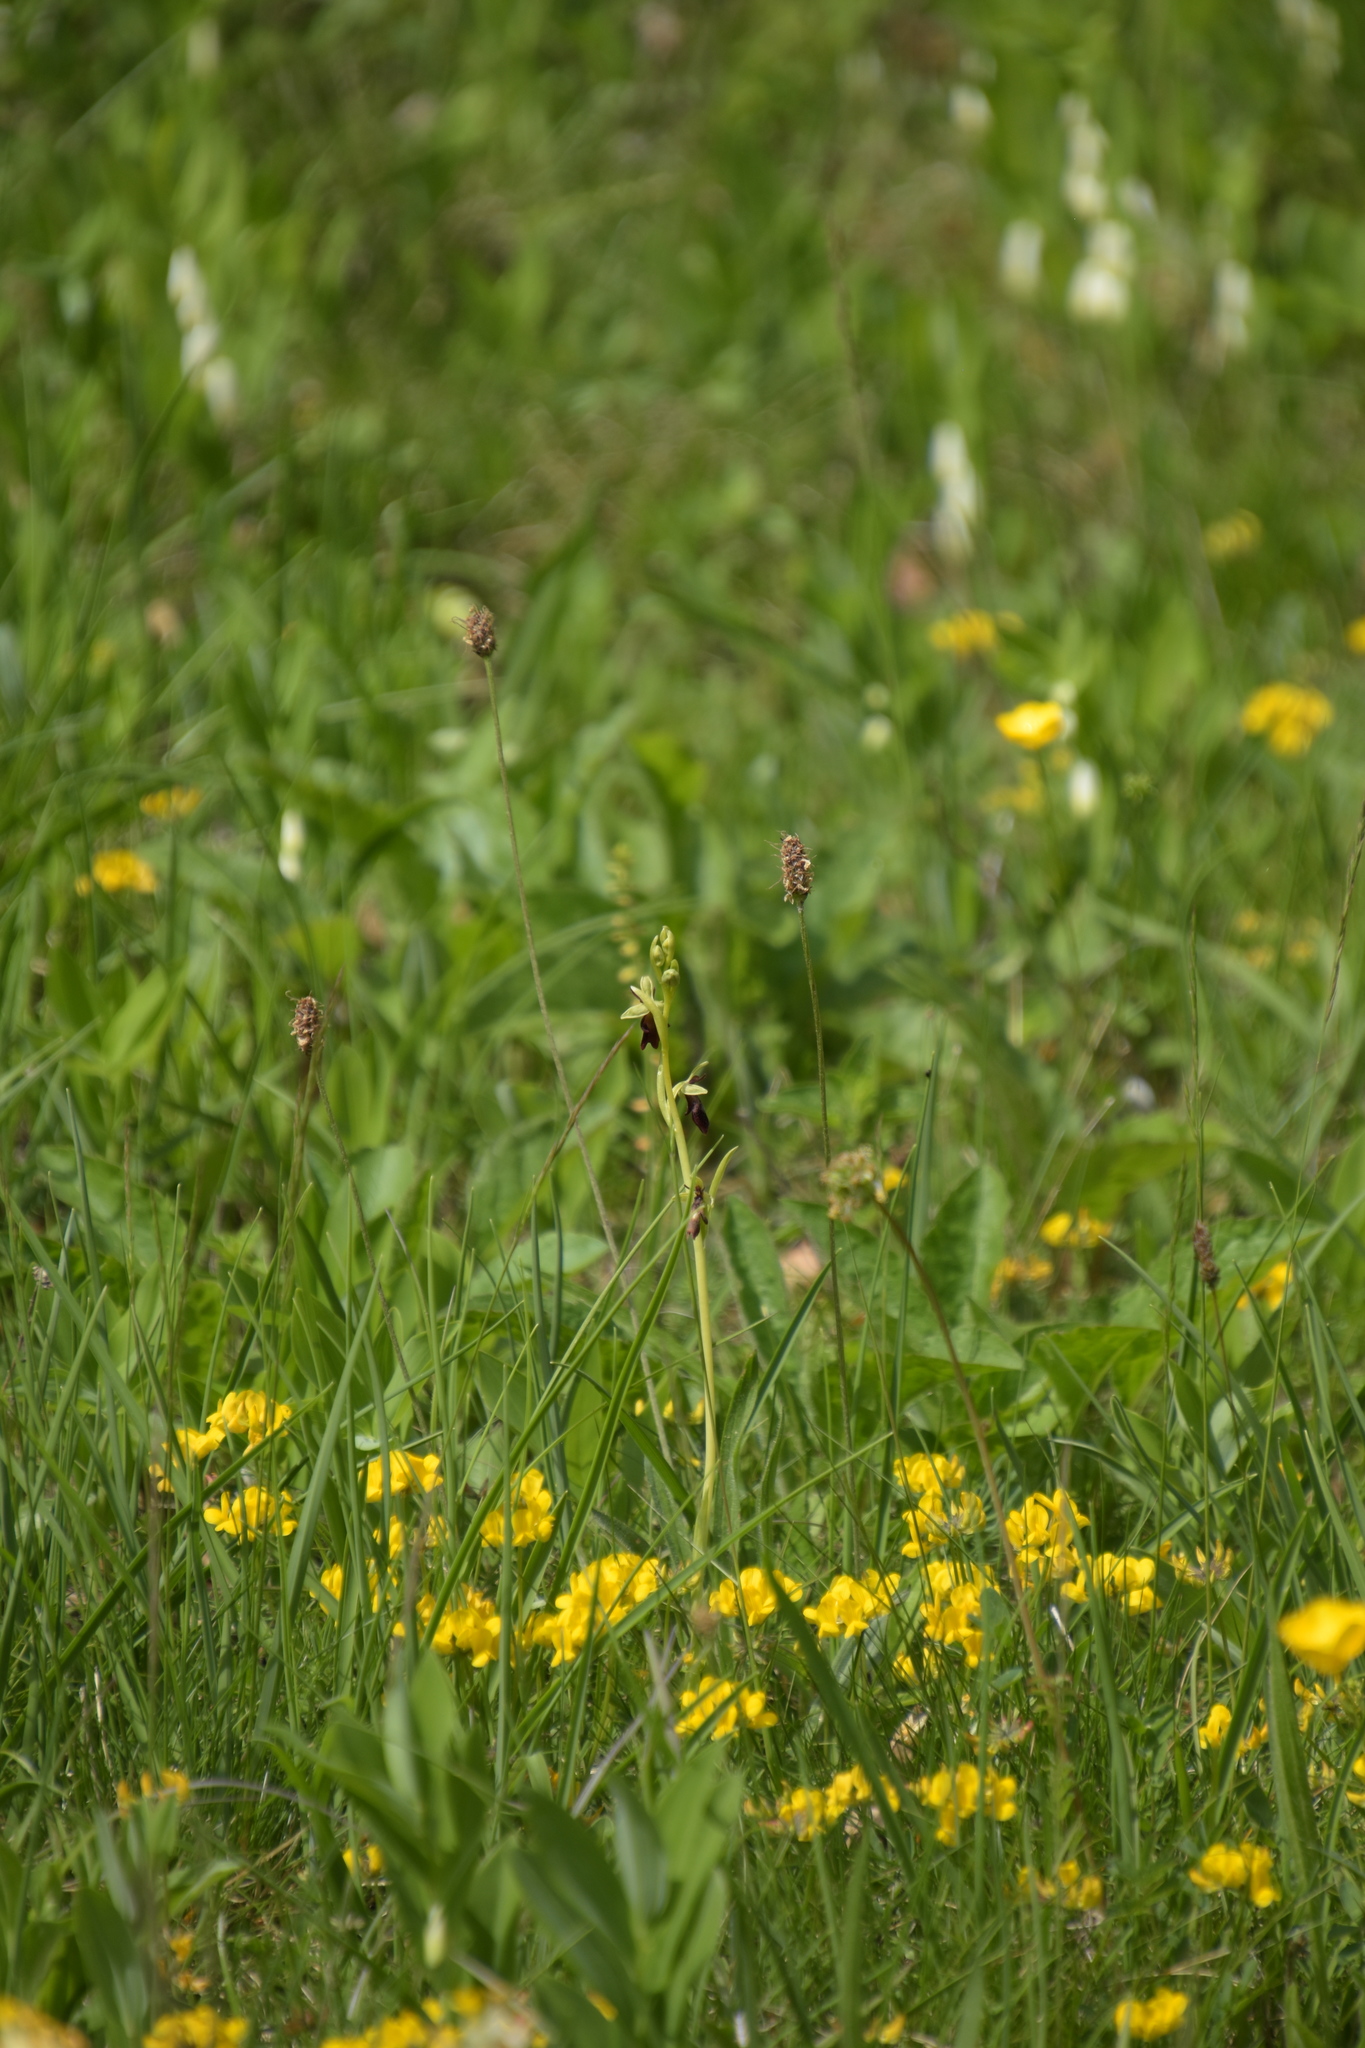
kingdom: Plantae
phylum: Tracheophyta
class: Liliopsida
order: Asparagales
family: Orchidaceae
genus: Ophrys
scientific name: Ophrys insectifera
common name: Fly orchid
